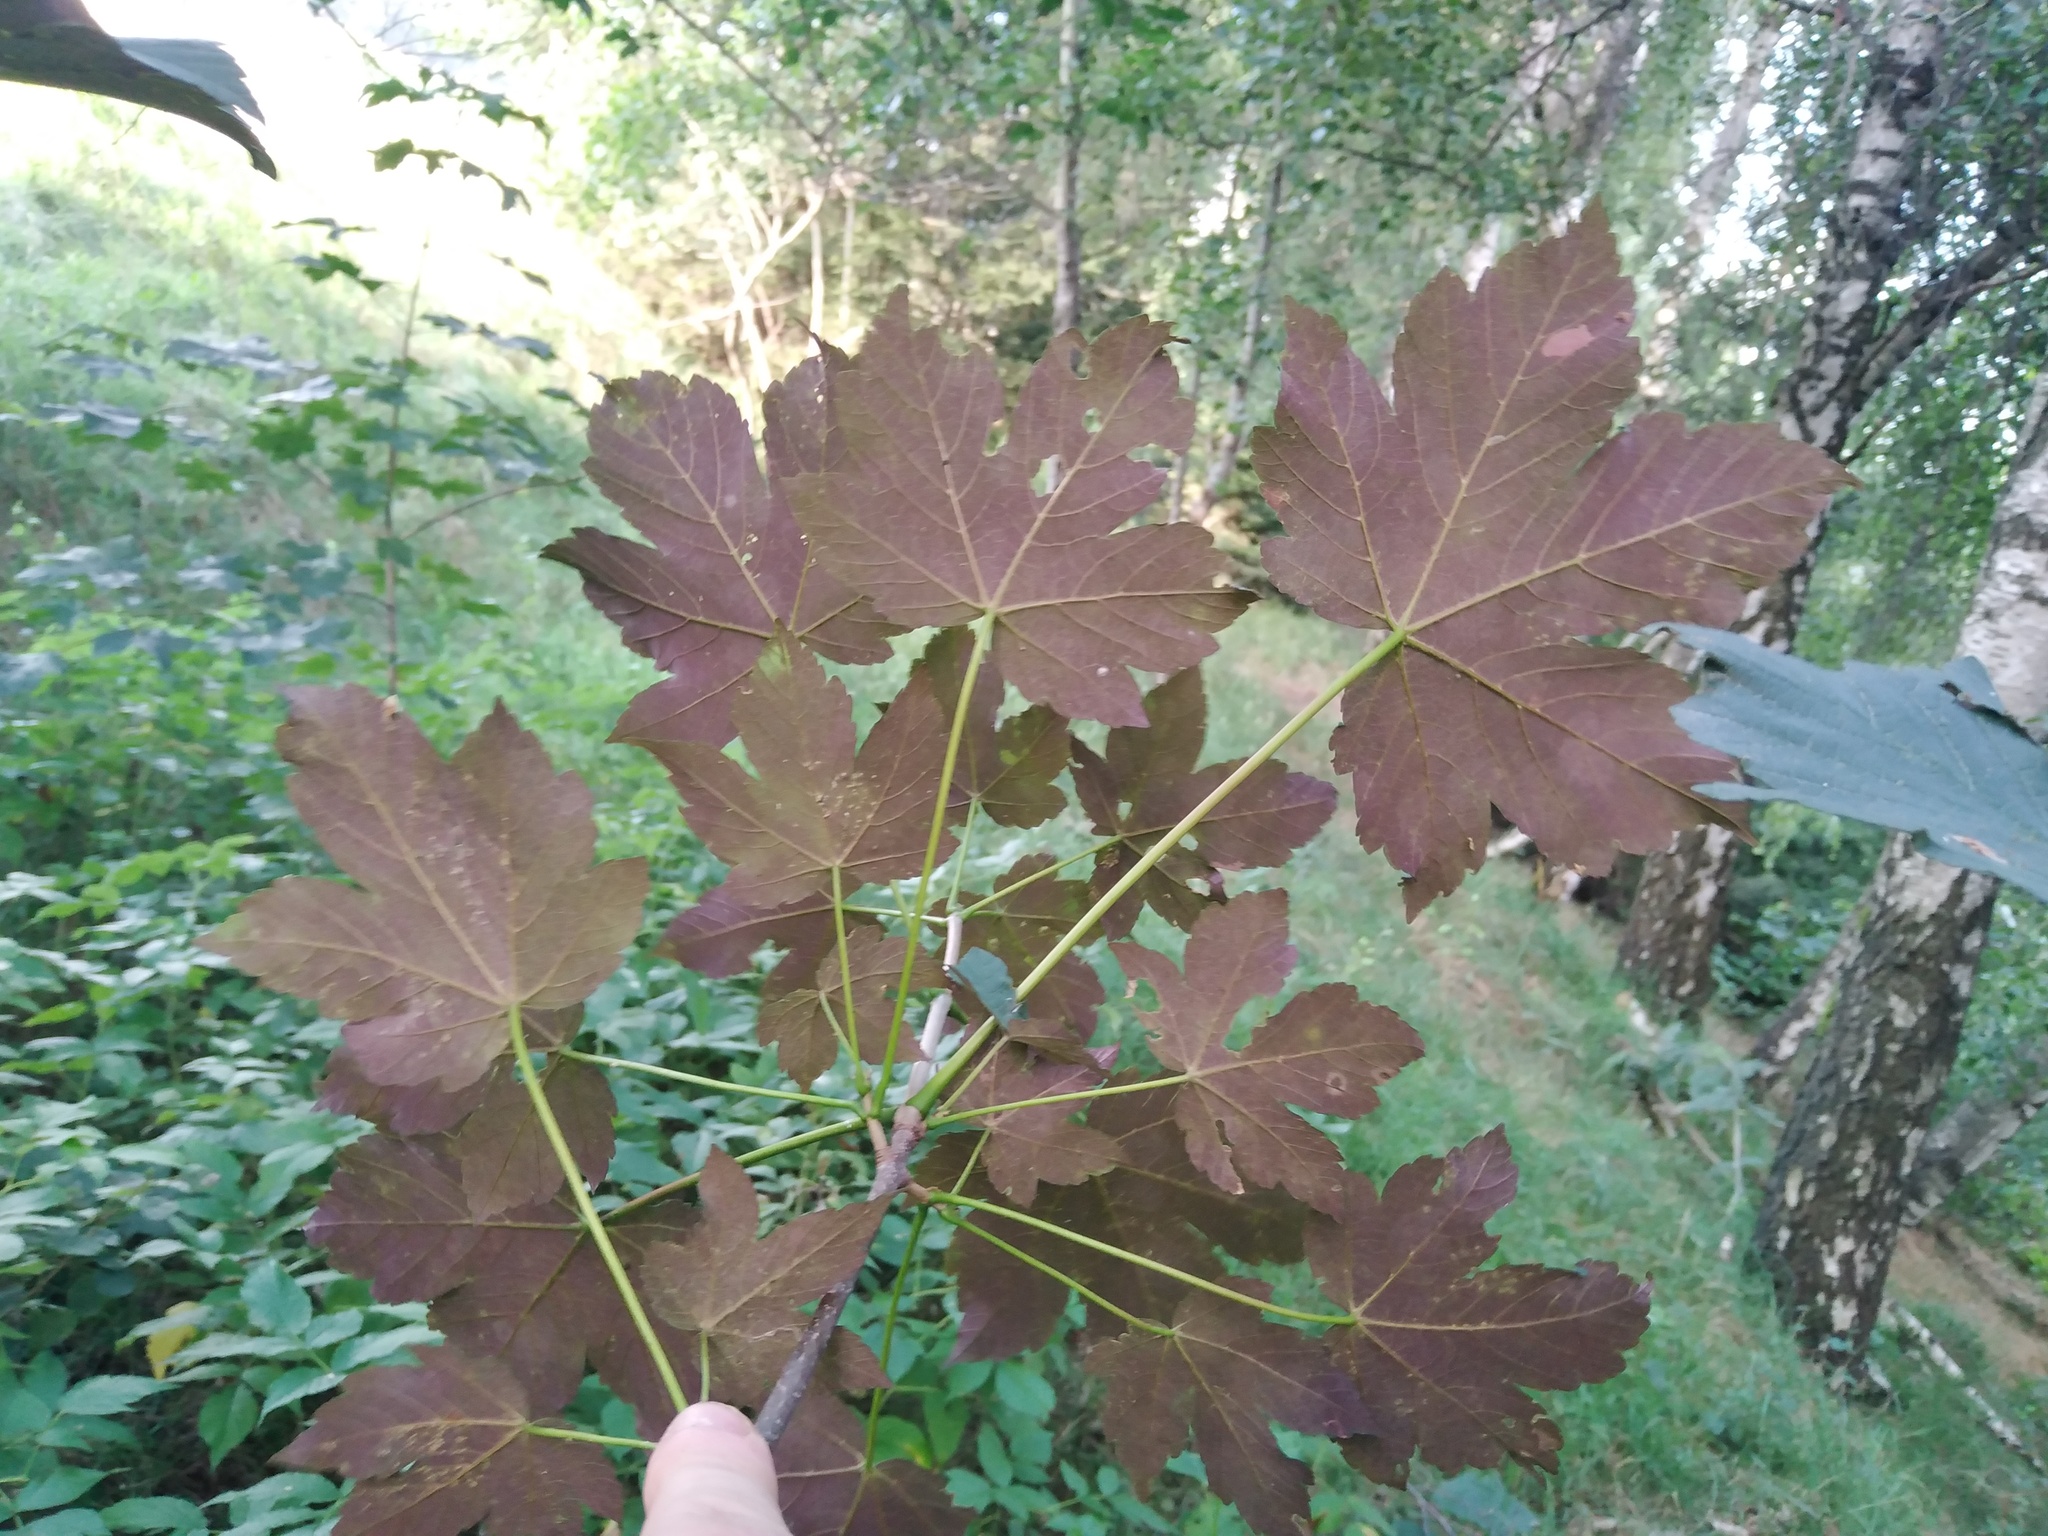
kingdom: Plantae
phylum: Tracheophyta
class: Magnoliopsida
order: Sapindales
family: Sapindaceae
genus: Acer
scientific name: Acer pseudoplatanus
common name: Sycamore
